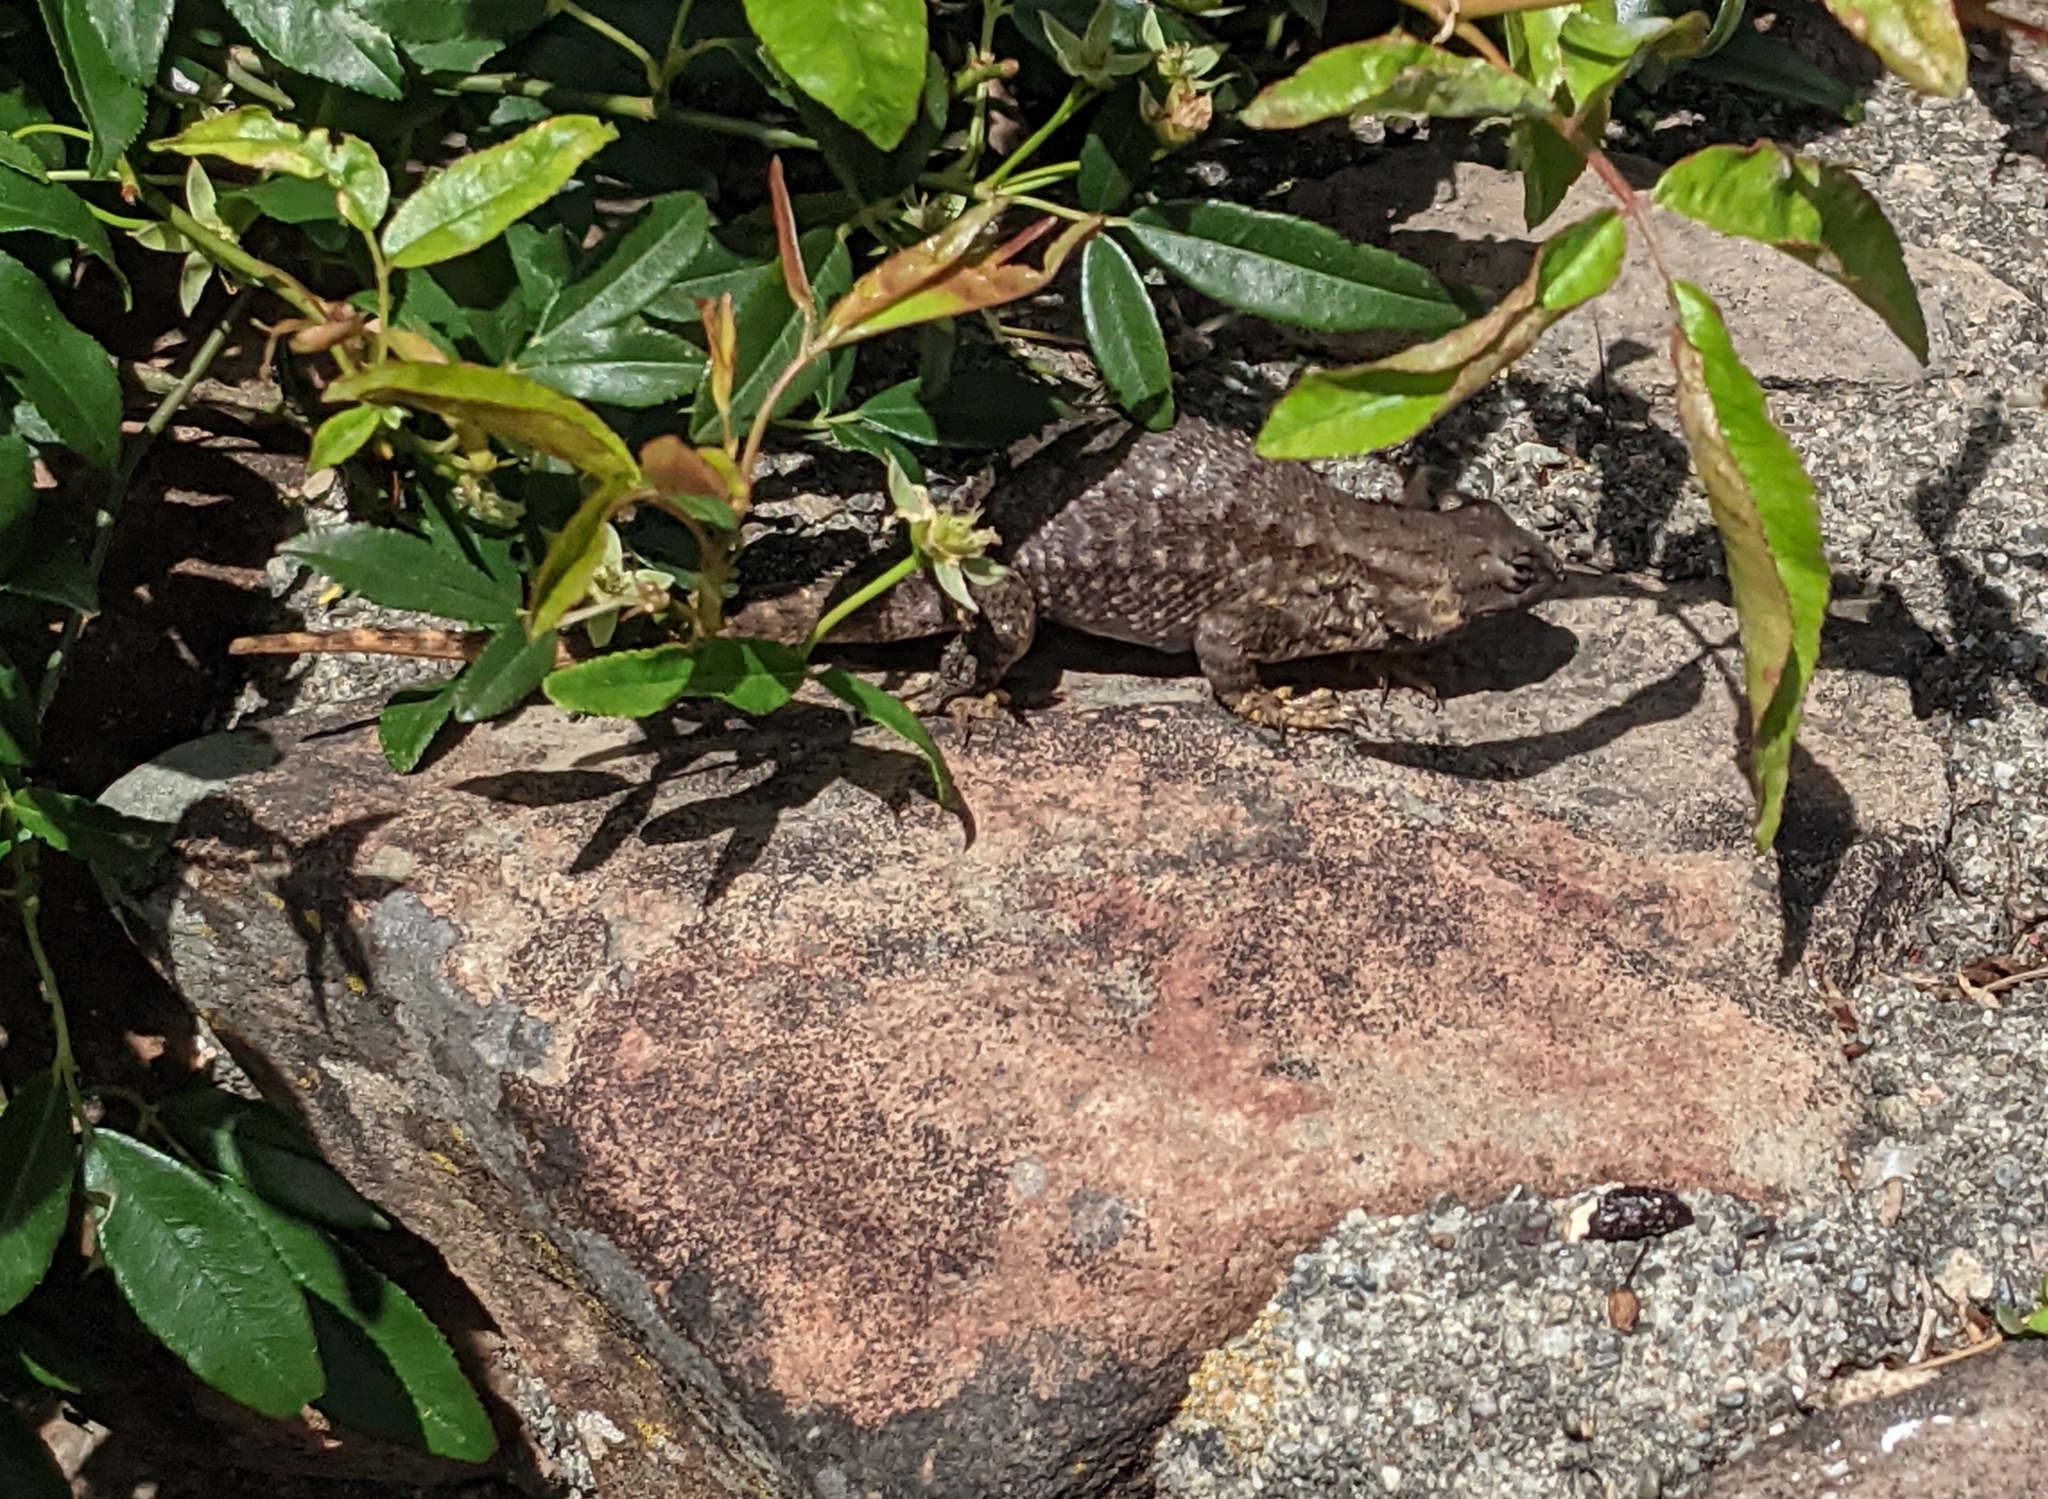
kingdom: Animalia
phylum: Chordata
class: Squamata
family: Phrynosomatidae
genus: Sceloporus
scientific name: Sceloporus occidentalis
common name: Western fence lizard
